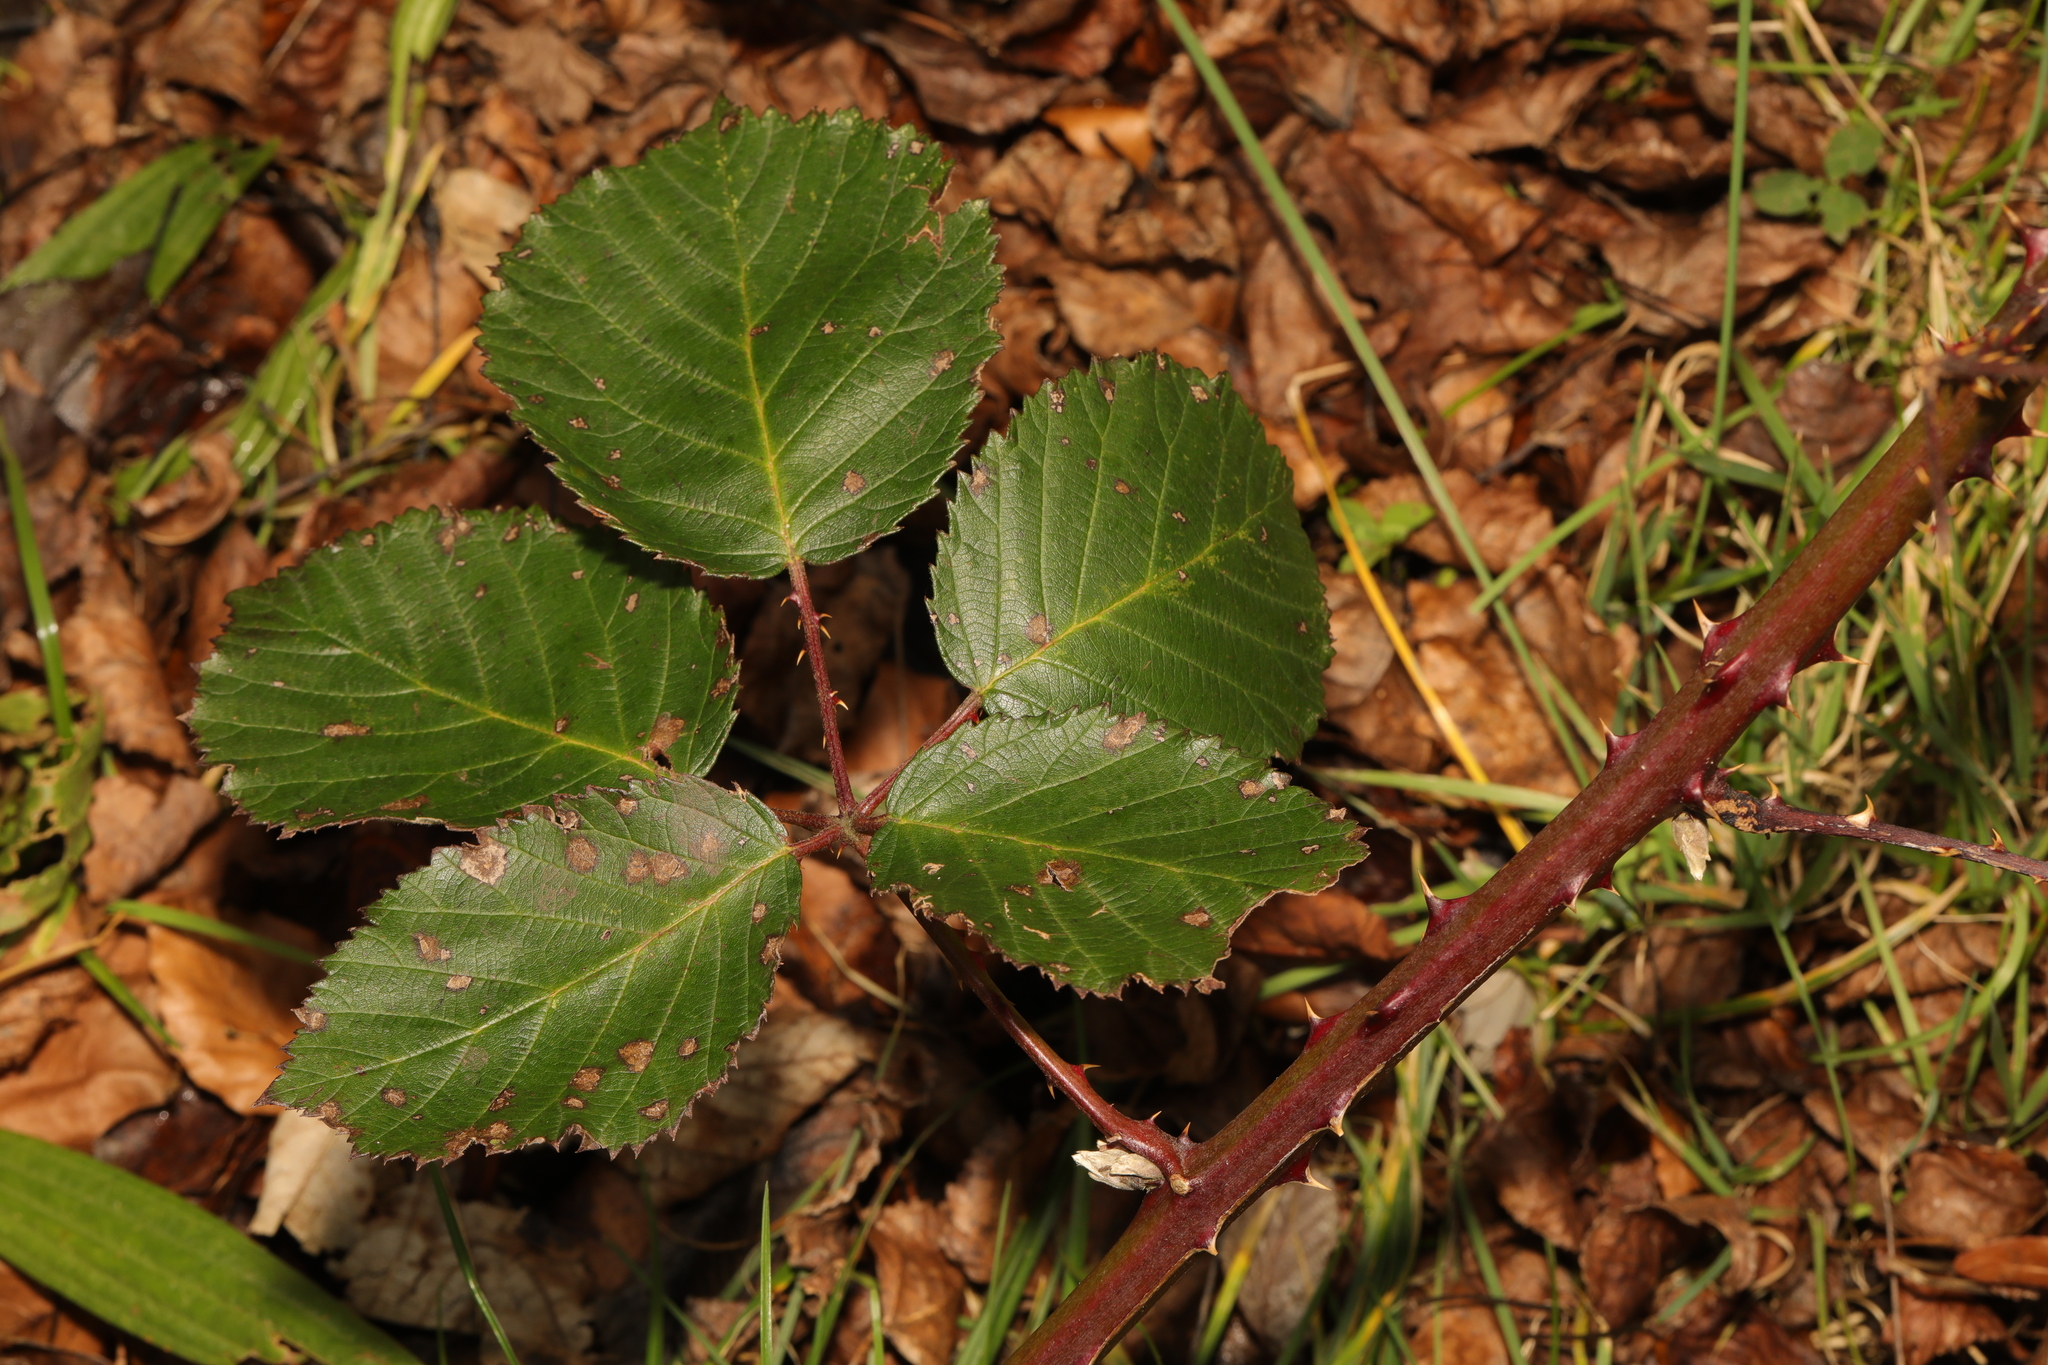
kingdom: Plantae
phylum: Tracheophyta
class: Magnoliopsida
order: Rosales
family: Rosaceae
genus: Rubus
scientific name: Rubus armeniacus
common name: Himalayan blackberry
